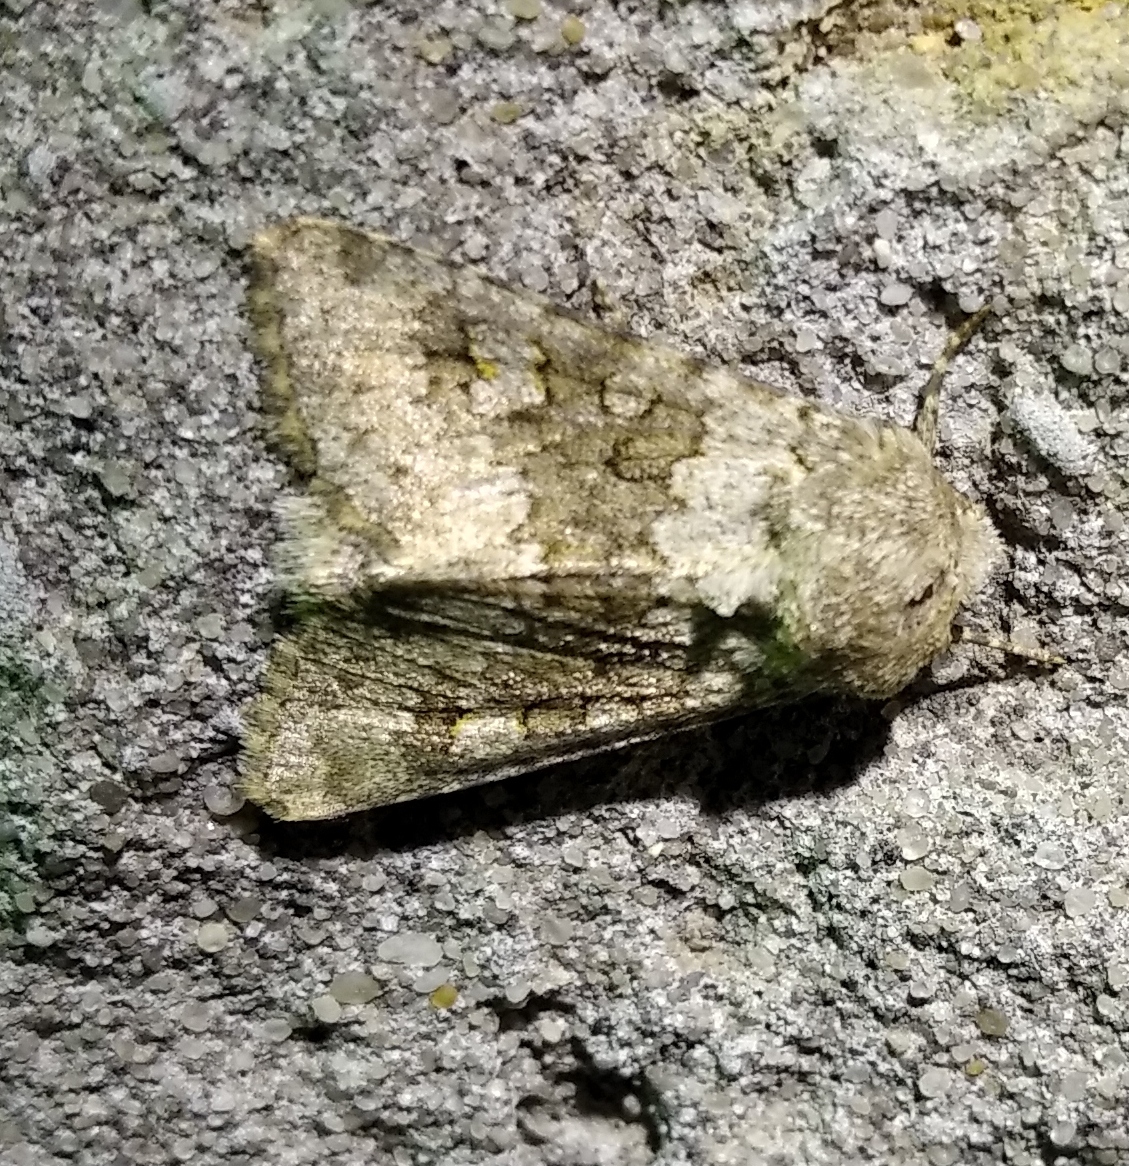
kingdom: Animalia
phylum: Arthropoda
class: Insecta
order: Lepidoptera
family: Noctuidae
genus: Hecatera
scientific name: Hecatera dysodea
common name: Small ranunculus
